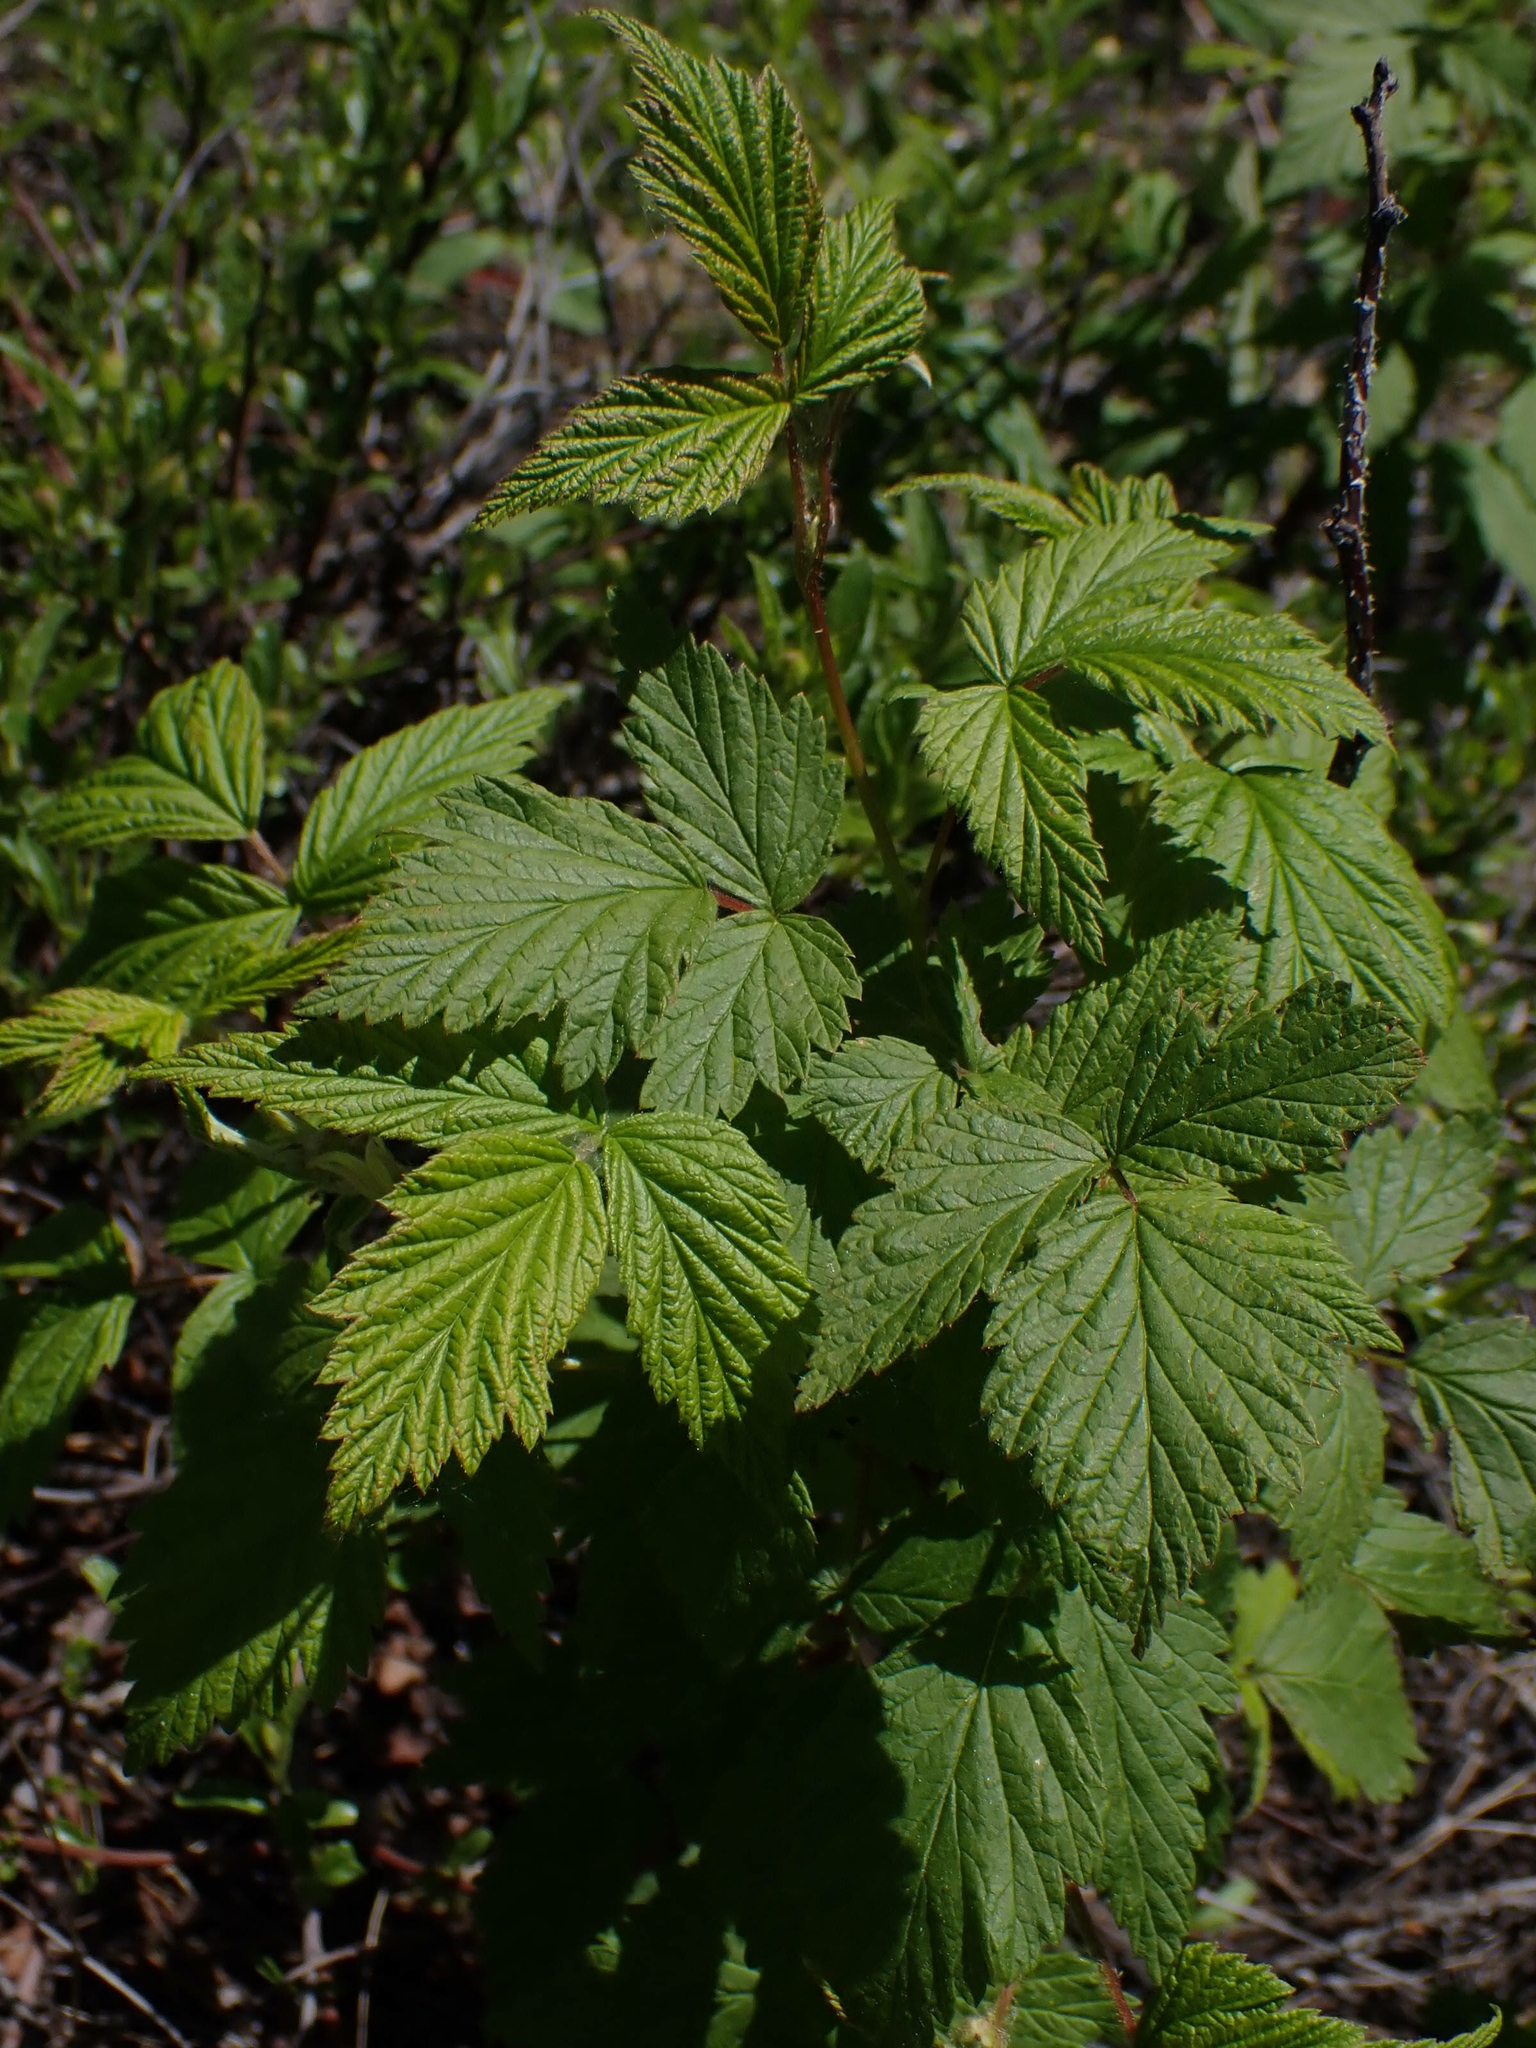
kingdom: Plantae
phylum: Tracheophyta
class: Magnoliopsida
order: Rosales
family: Rosaceae
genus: Rubus
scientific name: Rubus idaeus
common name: Raspberry
